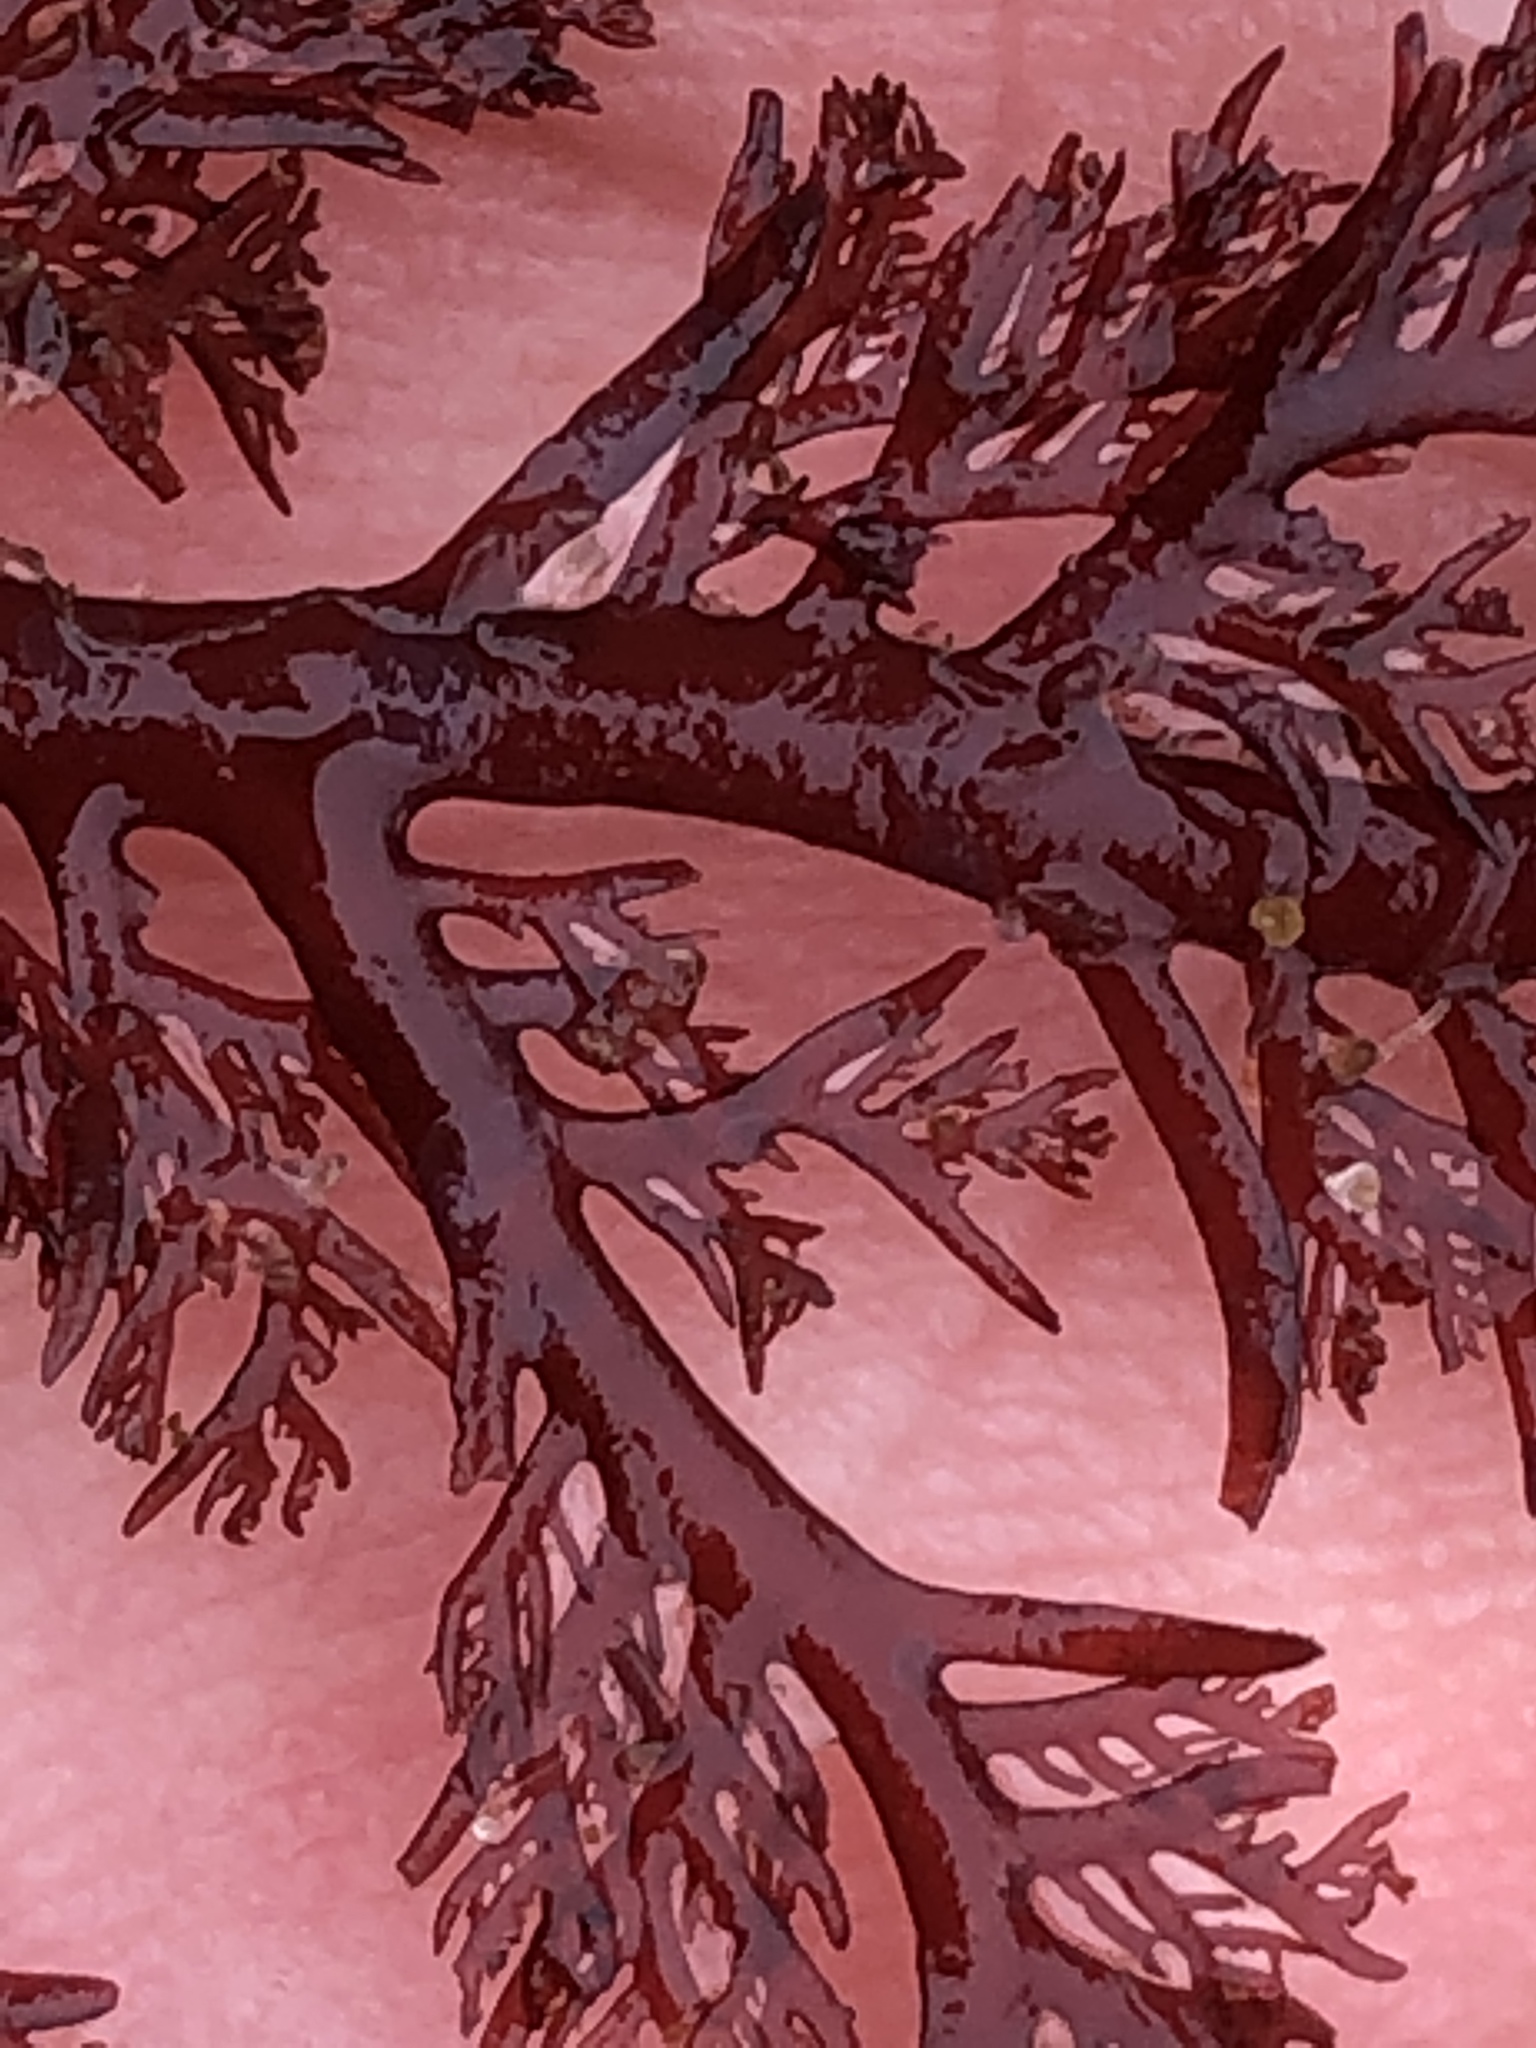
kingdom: Plantae
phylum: Rhodophyta
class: Florideophyceae
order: Plocamiales
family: Plocamiaceae
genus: Plocamium
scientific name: Plocamium cartilagineum
